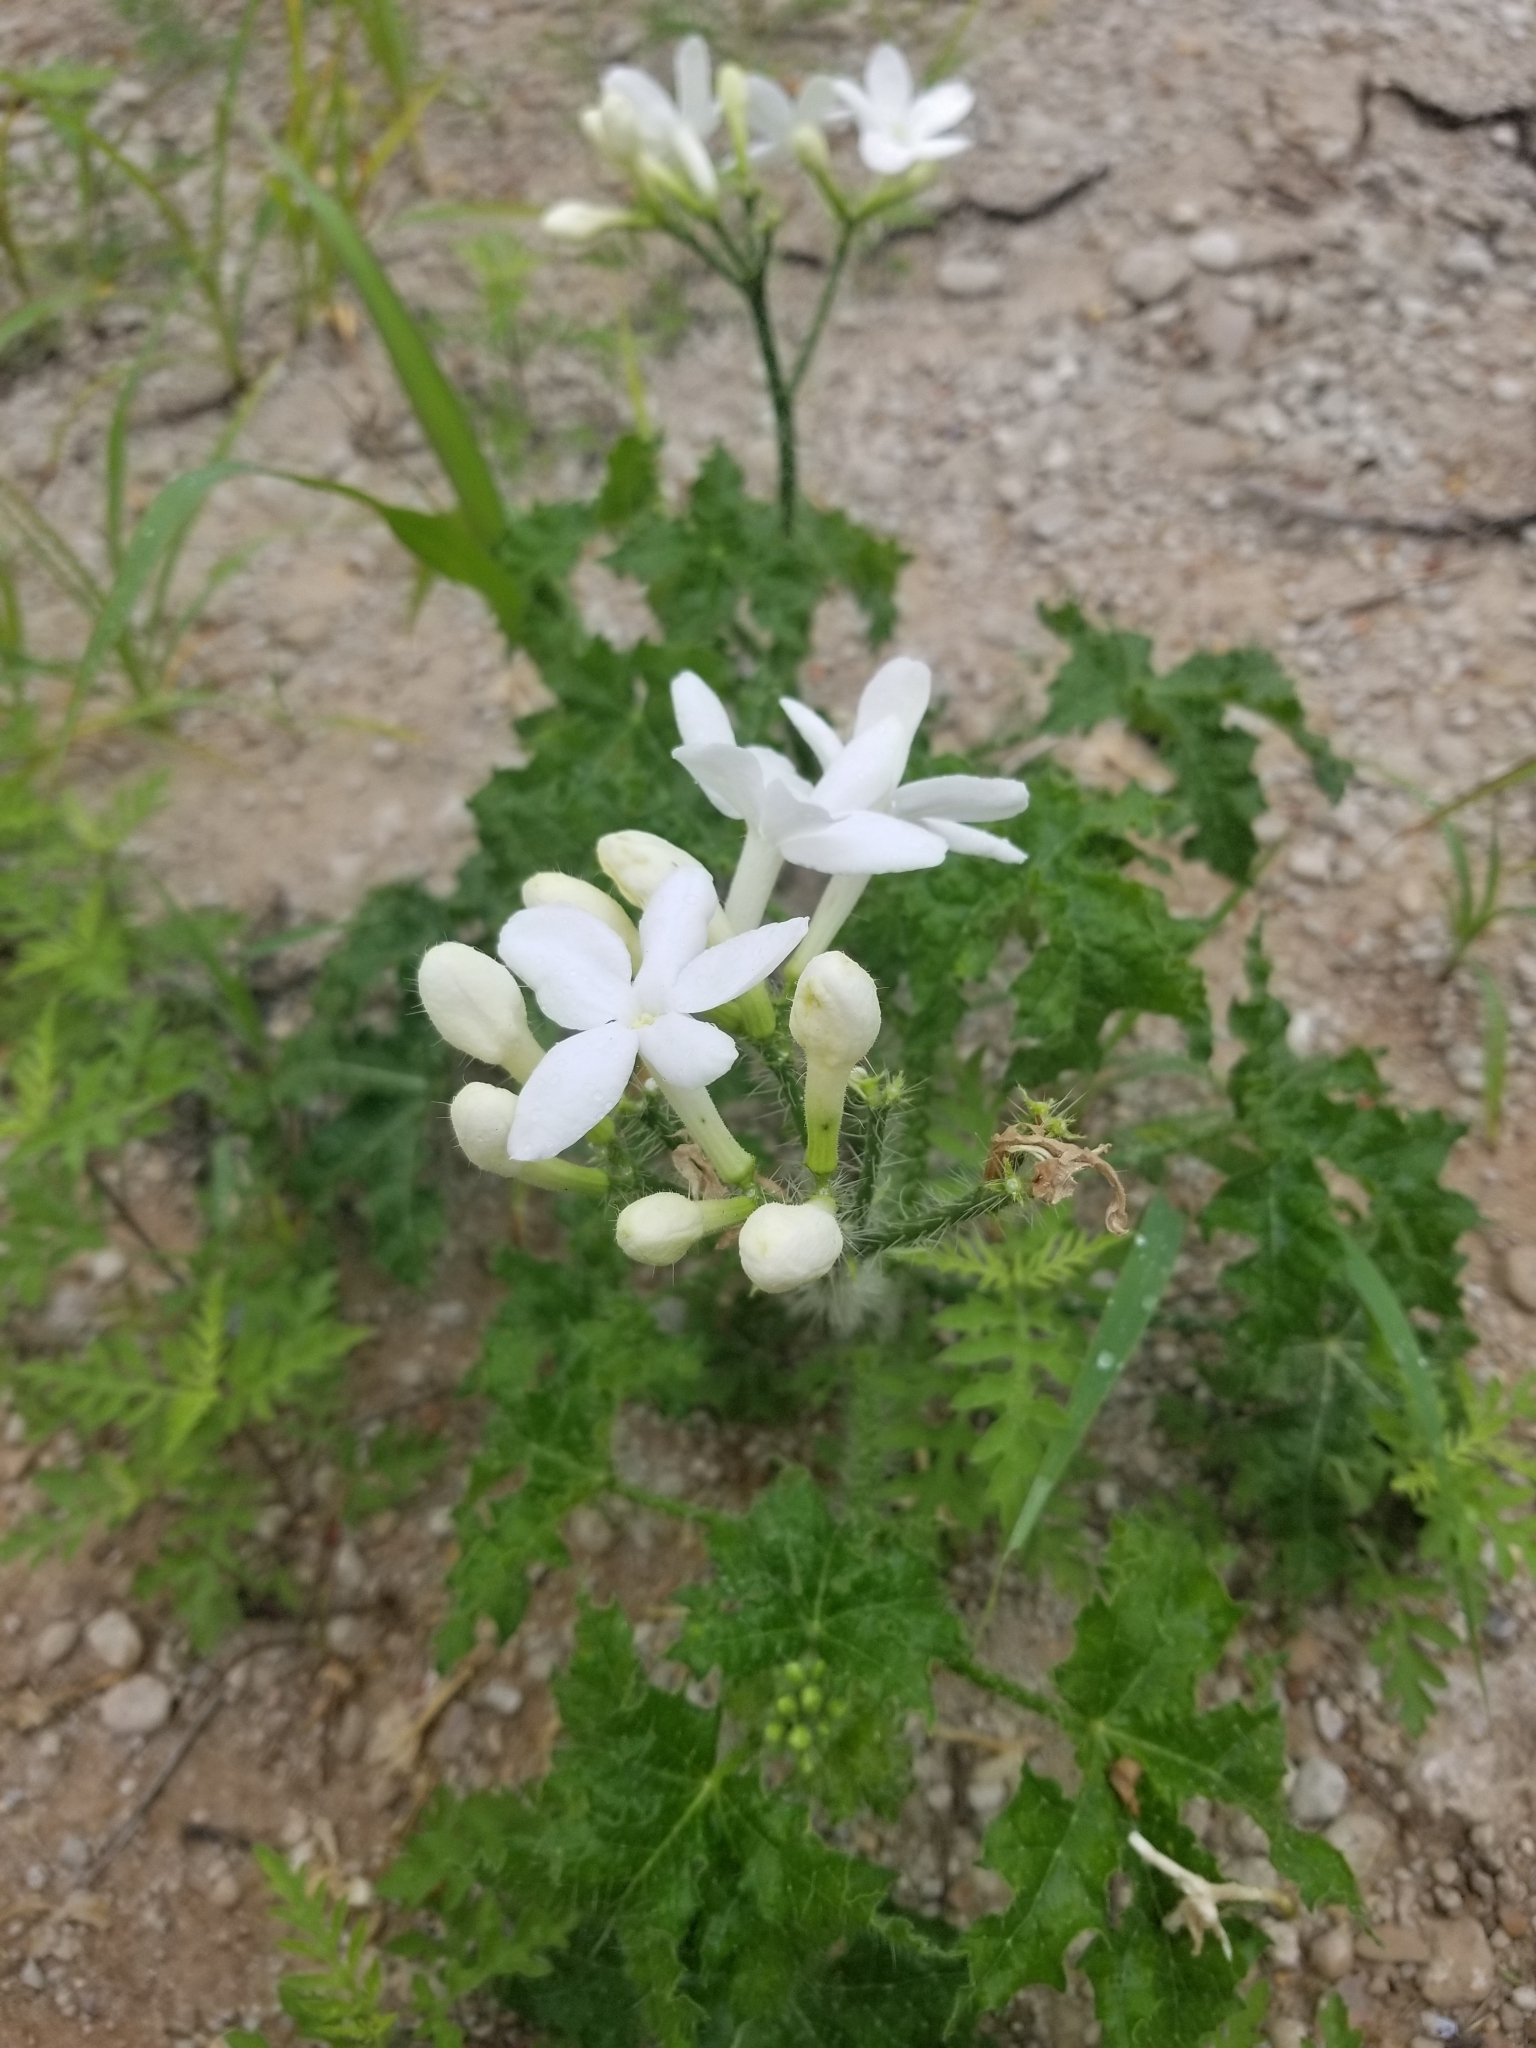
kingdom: Plantae
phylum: Tracheophyta
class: Magnoliopsida
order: Malpighiales
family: Euphorbiaceae
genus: Cnidoscolus
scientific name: Cnidoscolus texanus
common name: Texas bull-nettle
